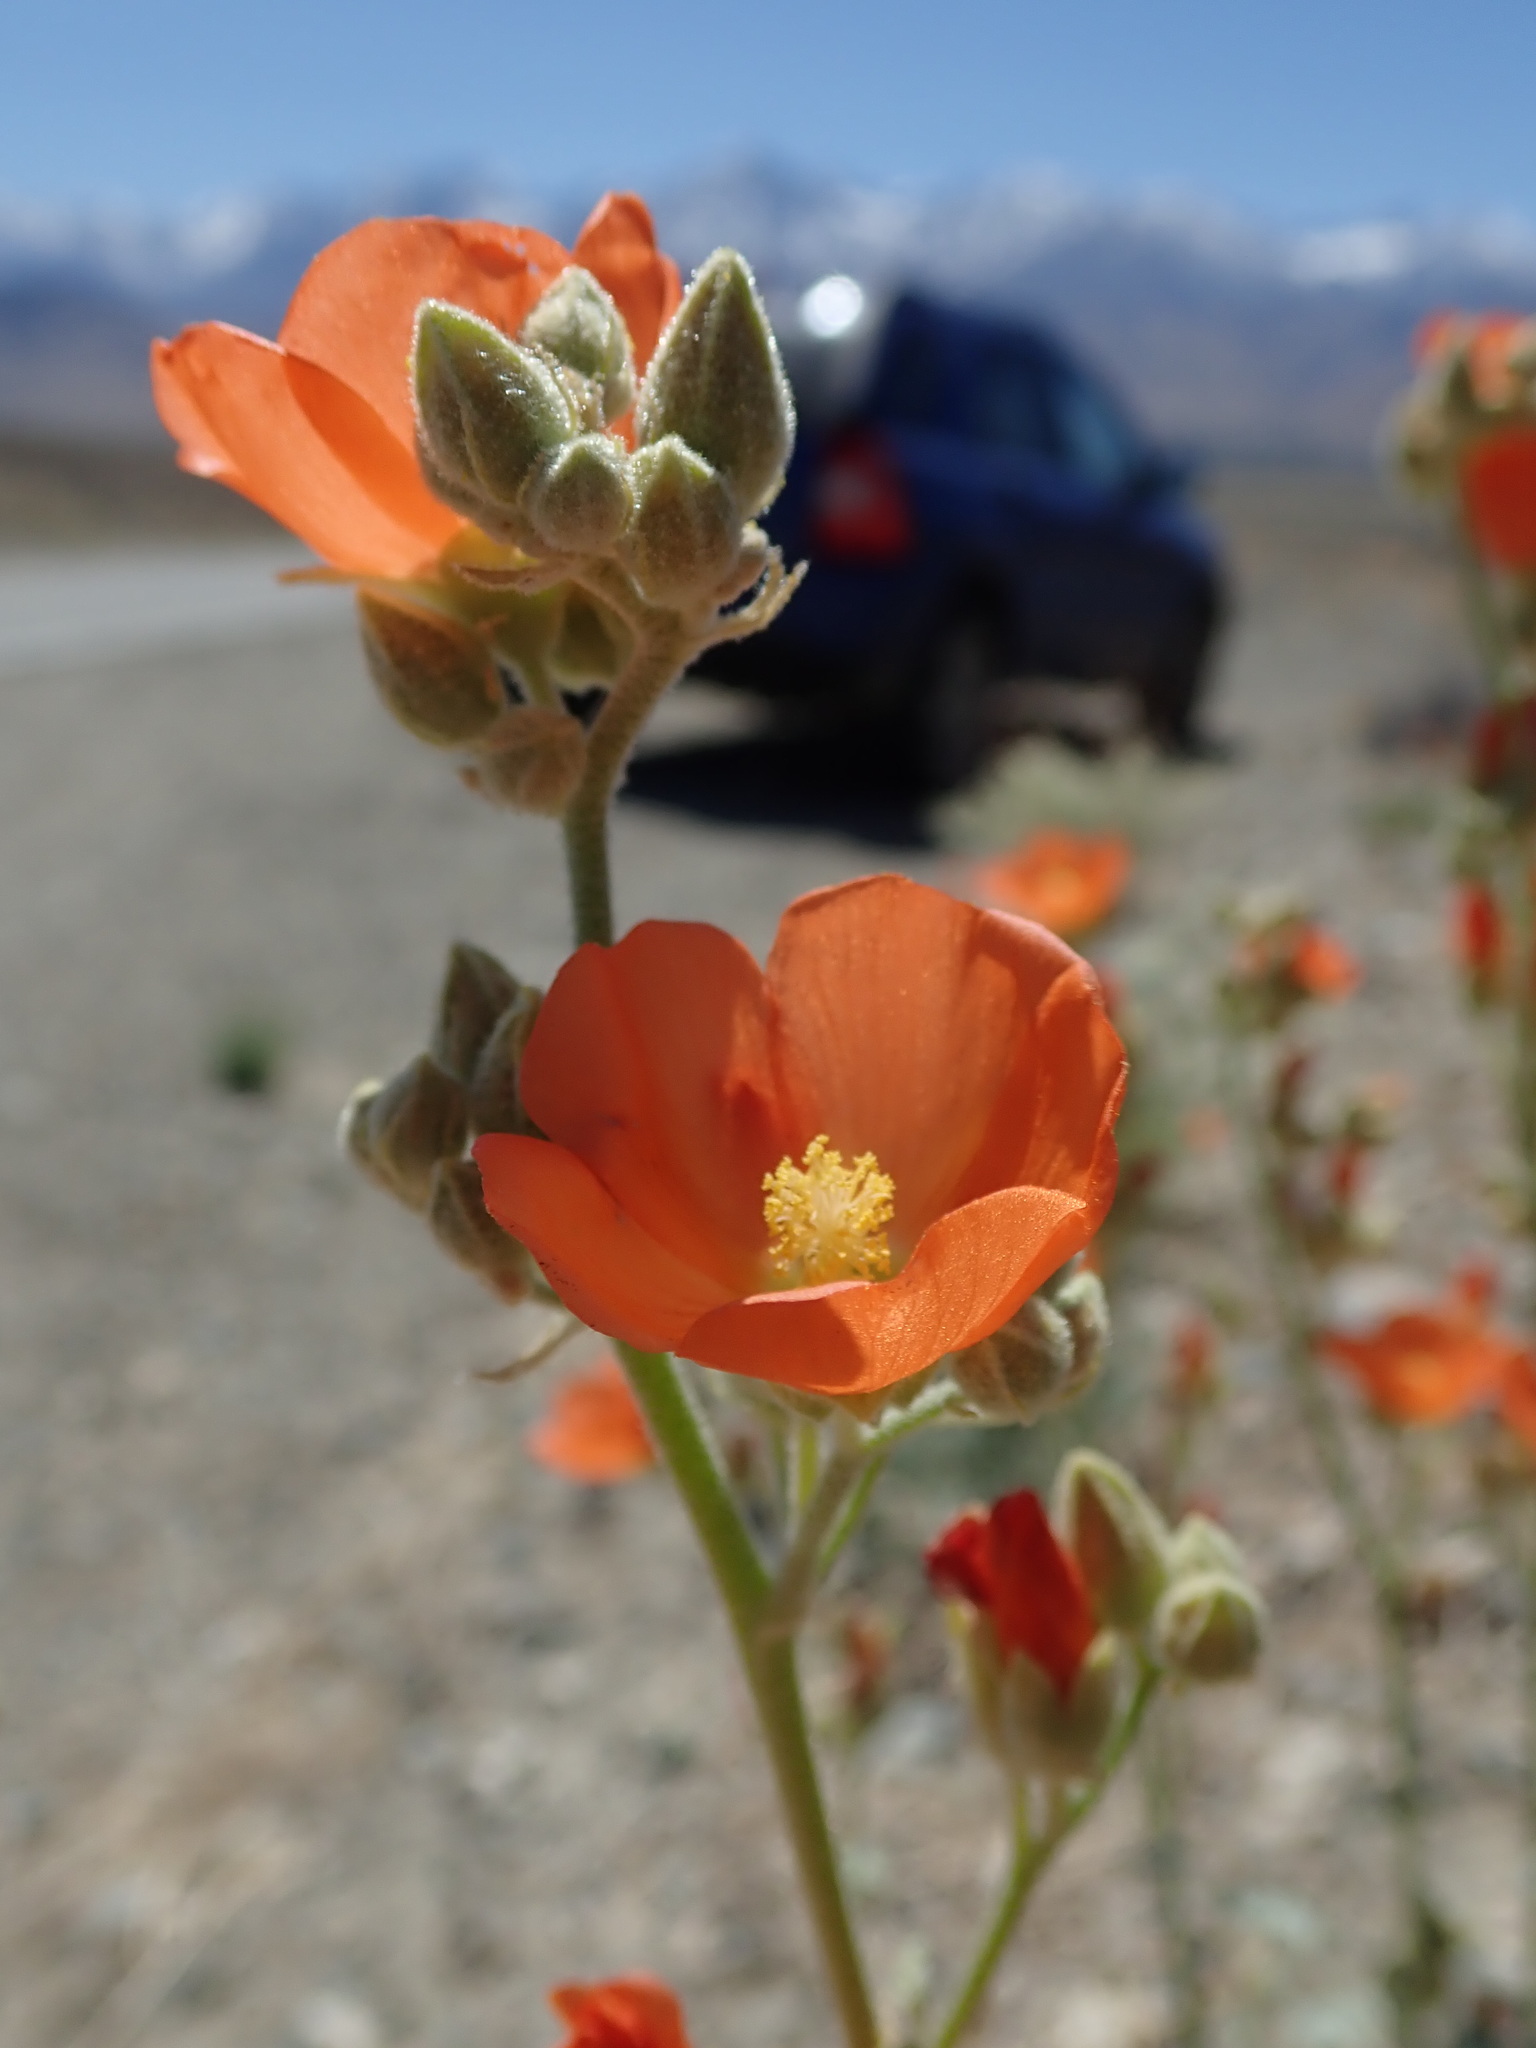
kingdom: Plantae
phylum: Tracheophyta
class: Magnoliopsida
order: Malvales
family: Malvaceae
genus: Sphaeralcea
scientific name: Sphaeralcea ambigua
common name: Apricot globe-mallow
